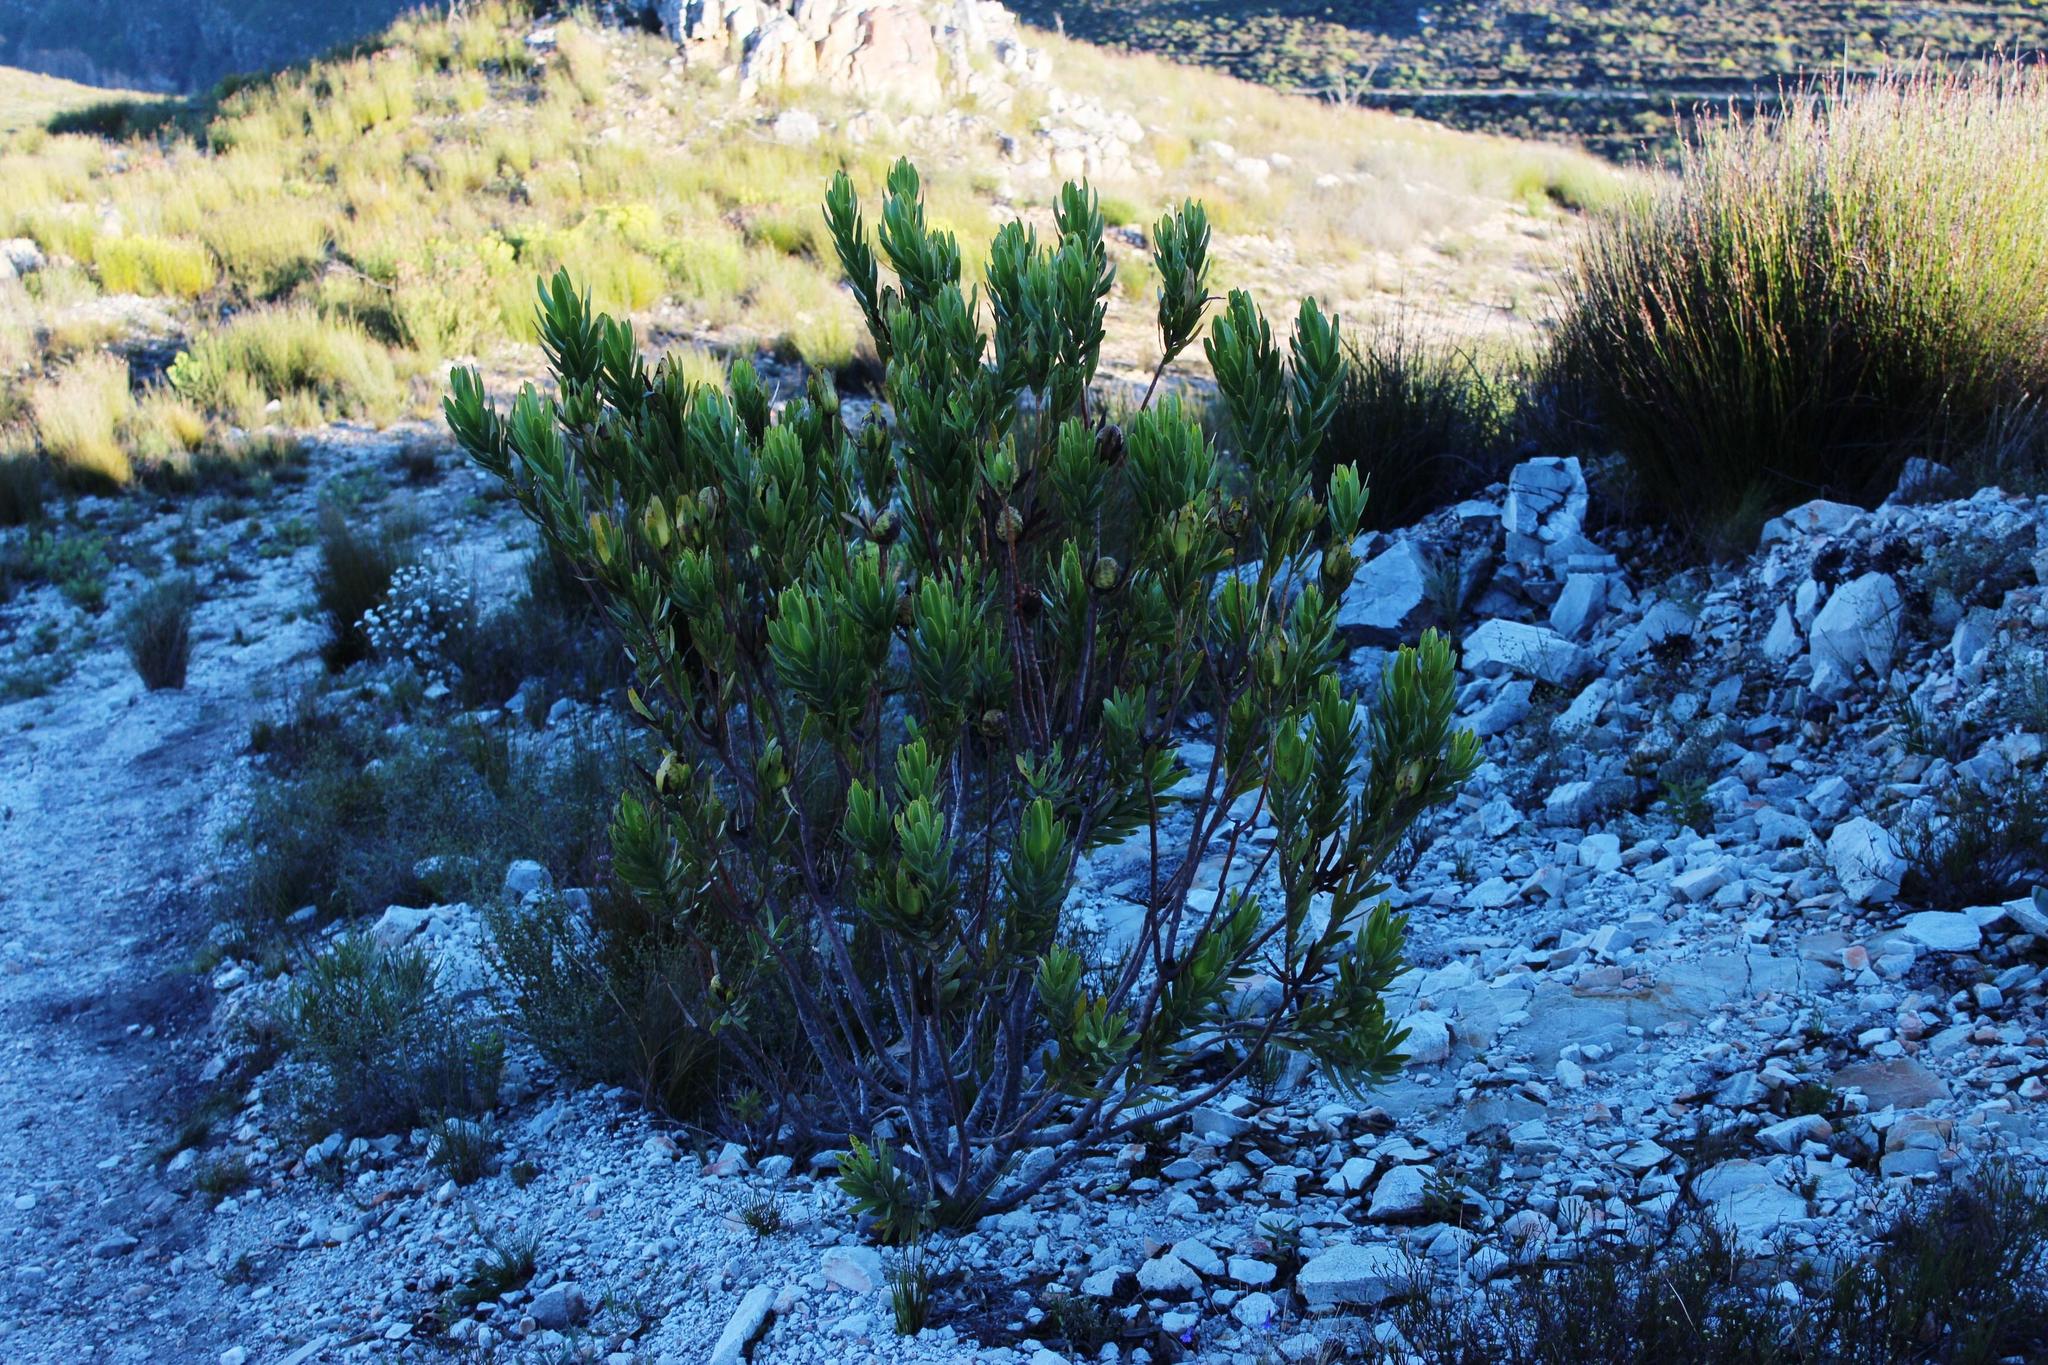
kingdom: Plantae
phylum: Tracheophyta
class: Magnoliopsida
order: Proteales
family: Proteaceae
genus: Leucadendron
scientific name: Leucadendron laureolum
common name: Golden sunshinebush
